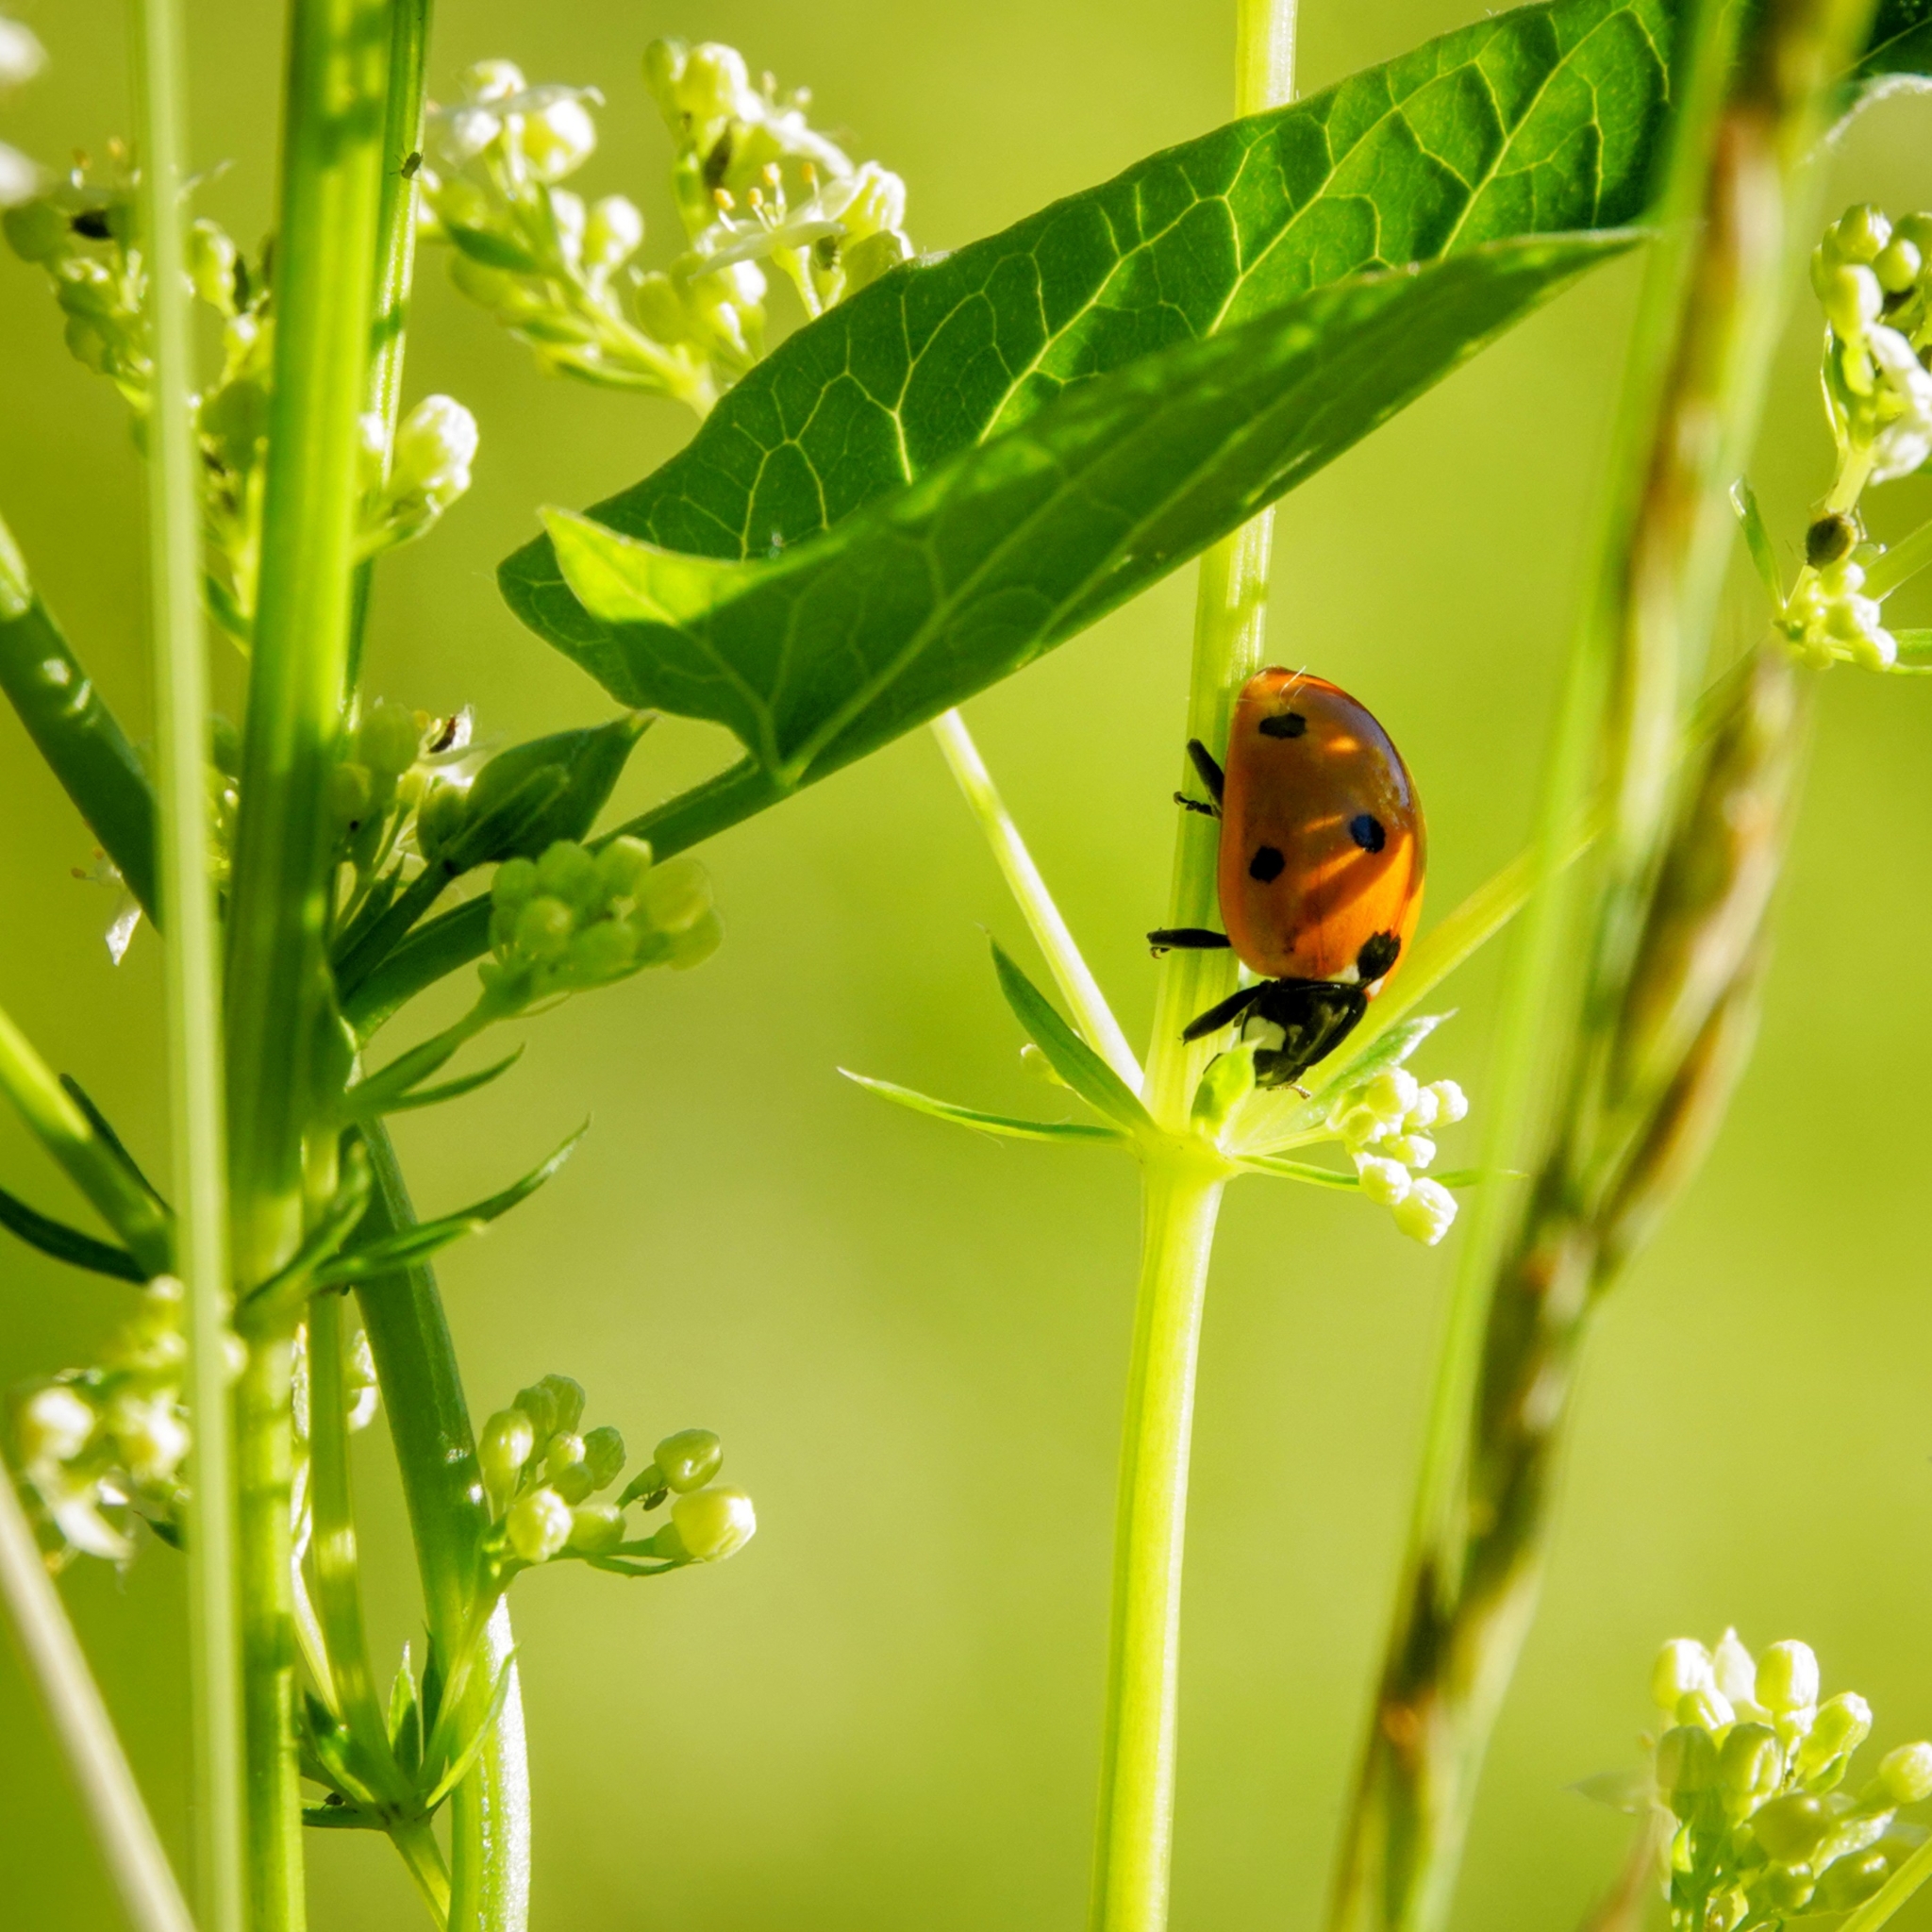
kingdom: Animalia
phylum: Arthropoda
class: Insecta
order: Coleoptera
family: Coccinellidae
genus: Coccinella
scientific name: Coccinella septempunctata
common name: Sevenspotted lady beetle
